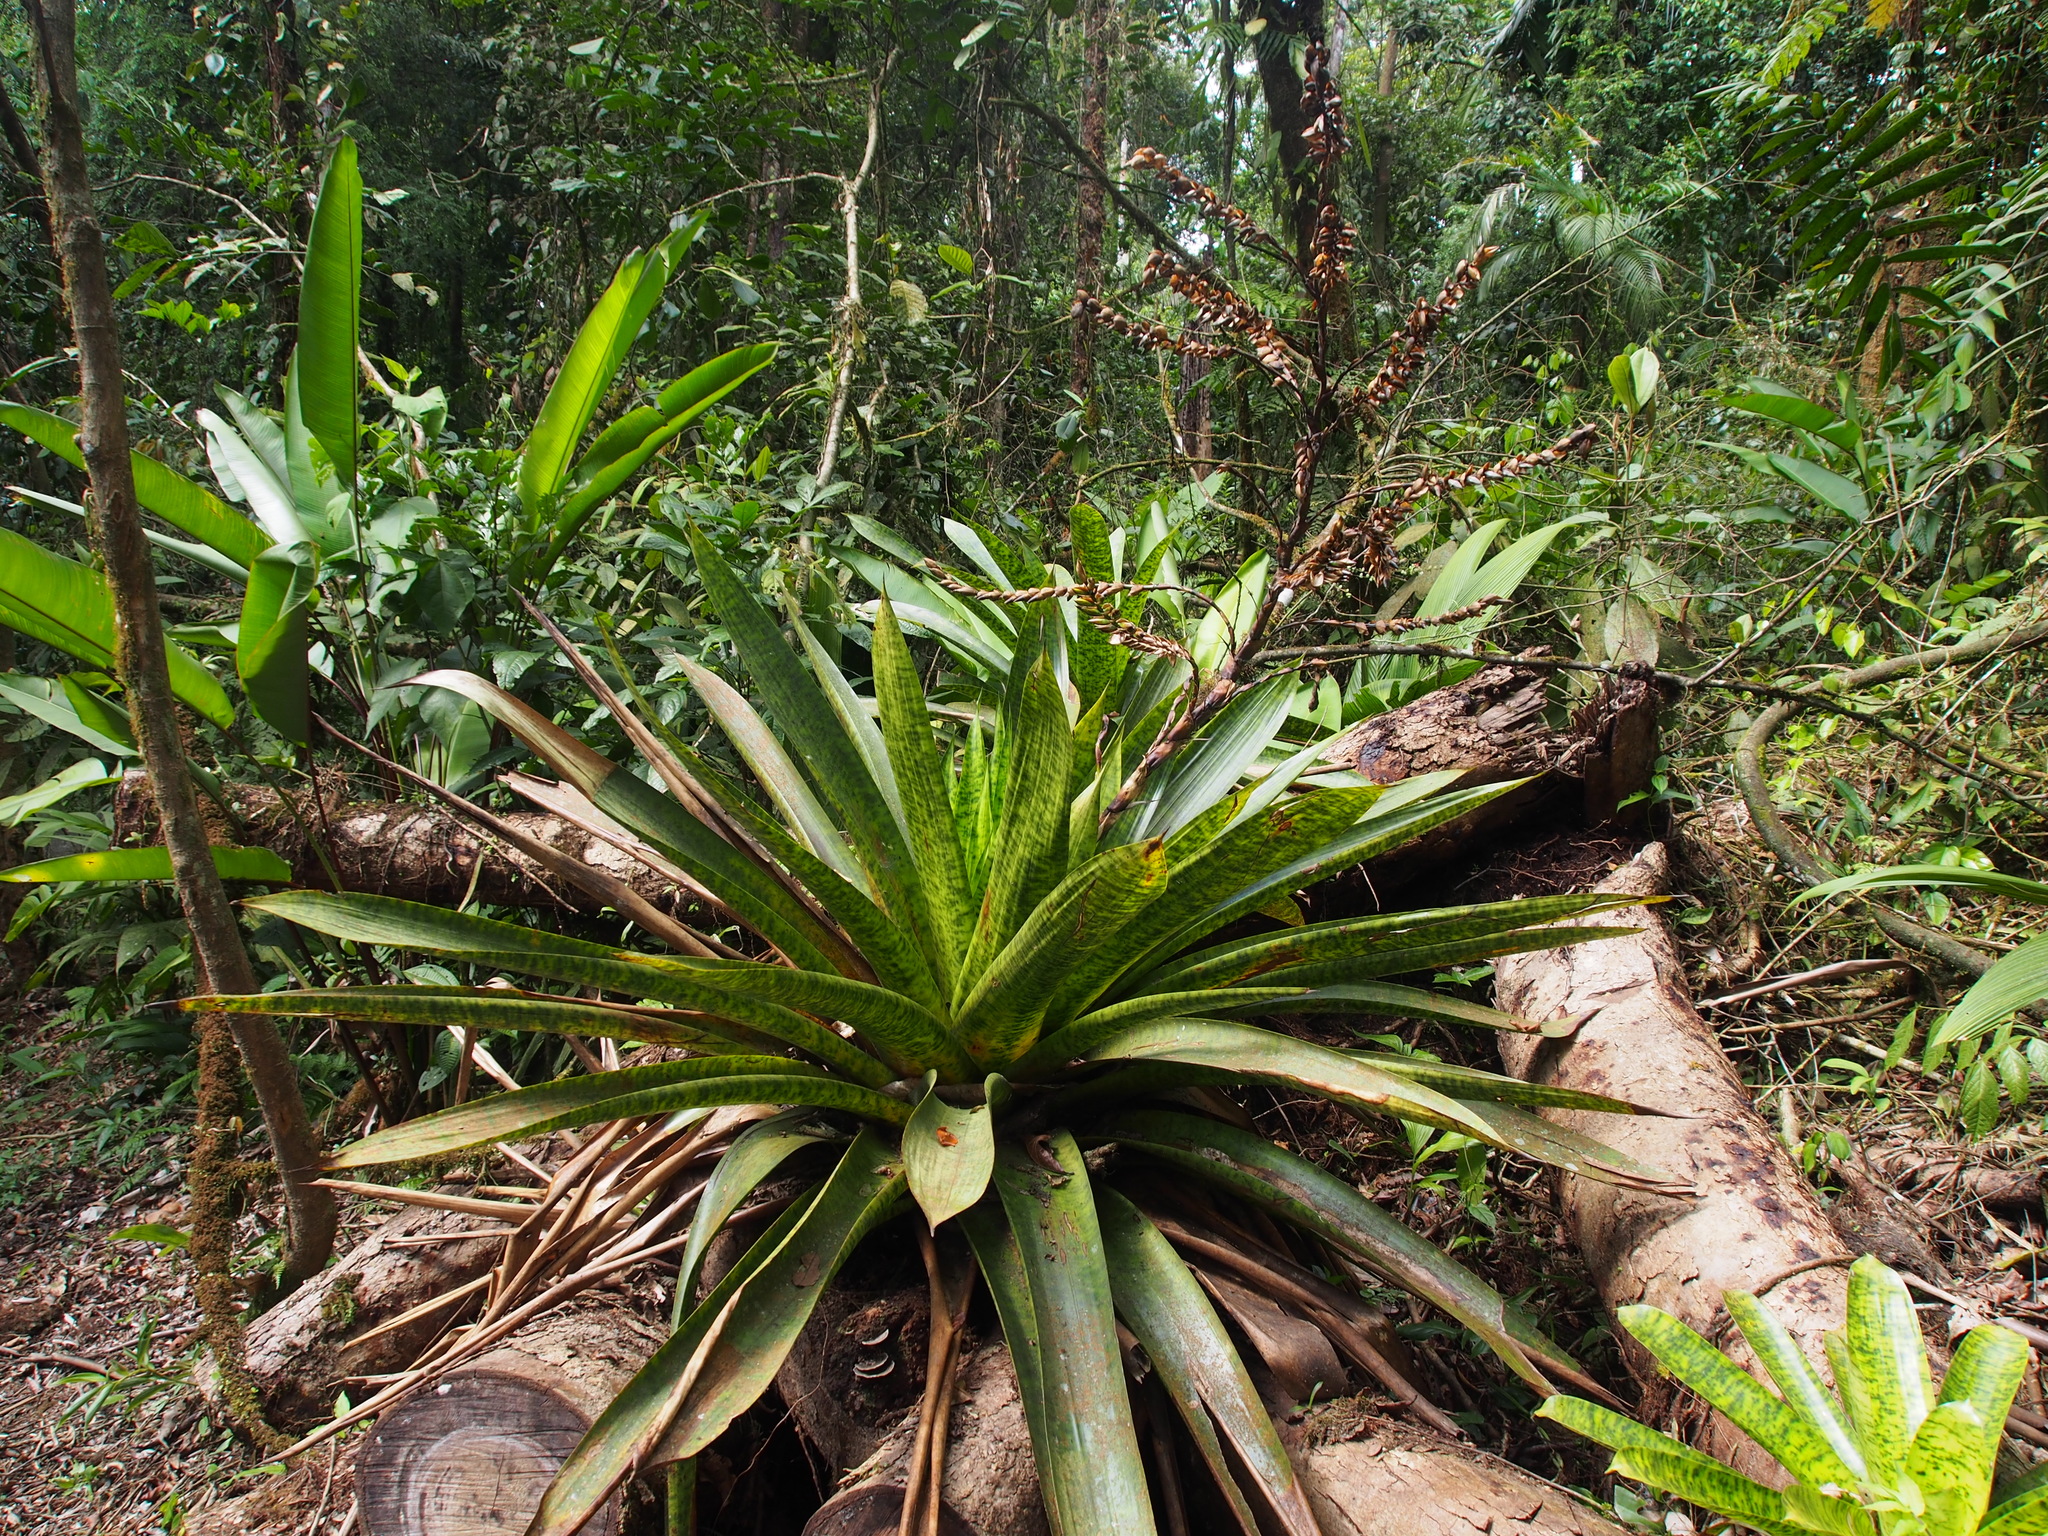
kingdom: Plantae
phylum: Tracheophyta
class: Liliopsida
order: Poales
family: Bromeliaceae
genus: Werauhia
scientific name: Werauhia kupperiana
